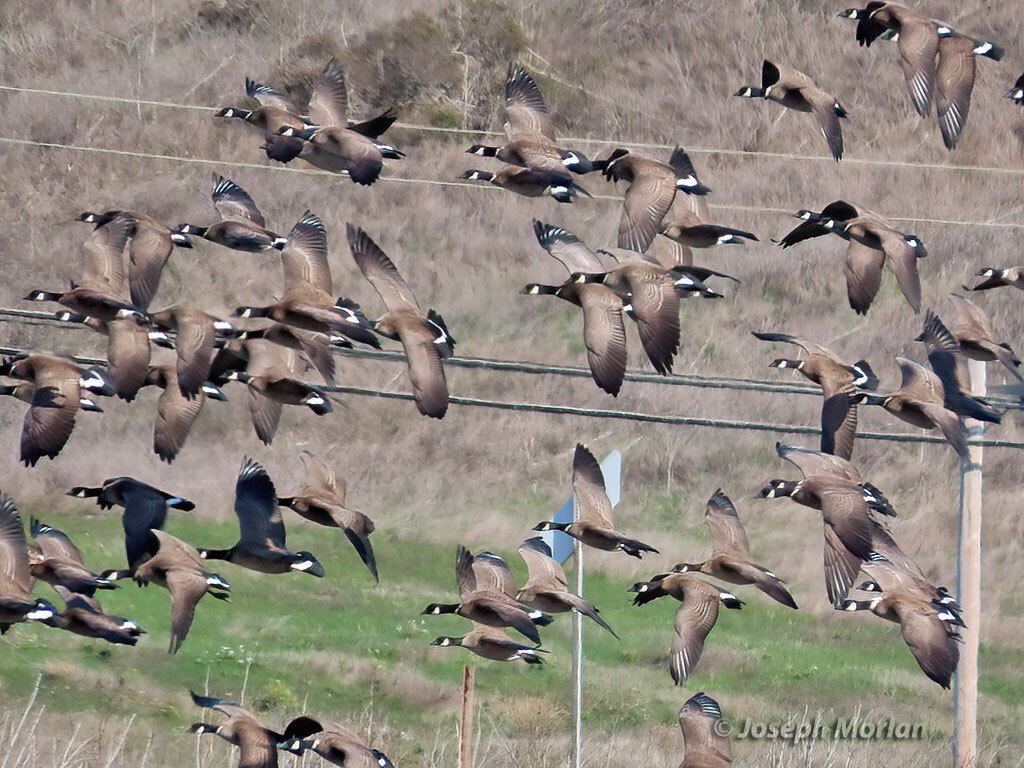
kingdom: Animalia
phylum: Chordata
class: Aves
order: Anseriformes
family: Anatidae
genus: Branta
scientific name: Branta hutchinsii
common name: Cackling goose
